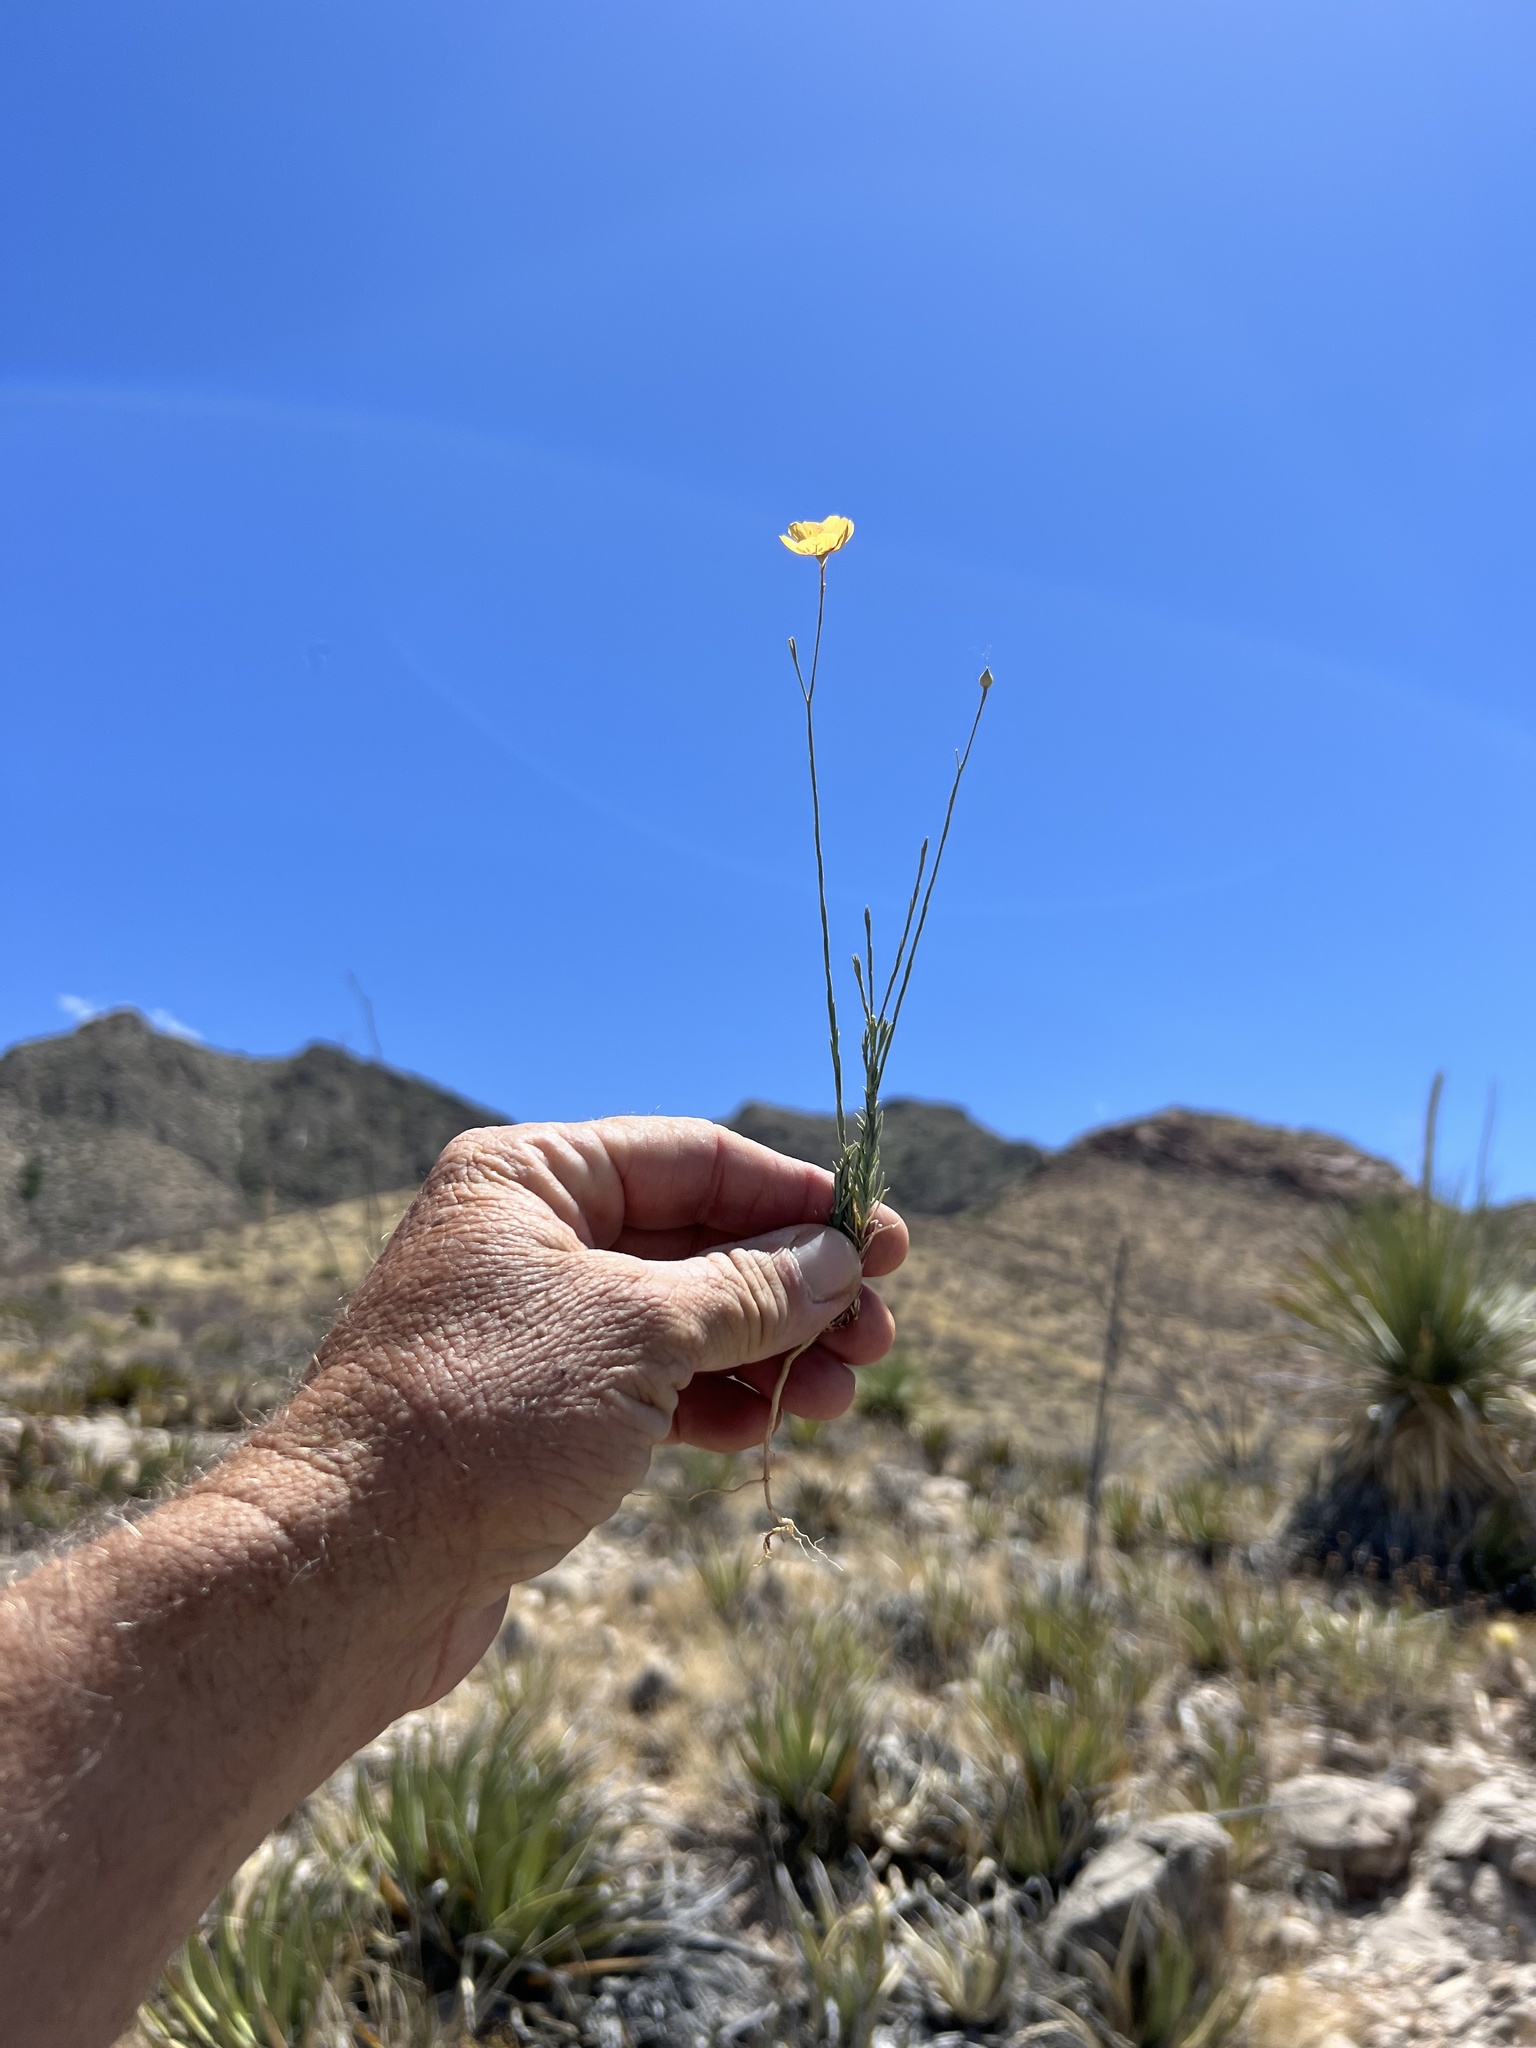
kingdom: Plantae
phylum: Tracheophyta
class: Magnoliopsida
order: Malpighiales
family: Linaceae
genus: Linum
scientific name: Linum puberulum
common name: Plains flax
